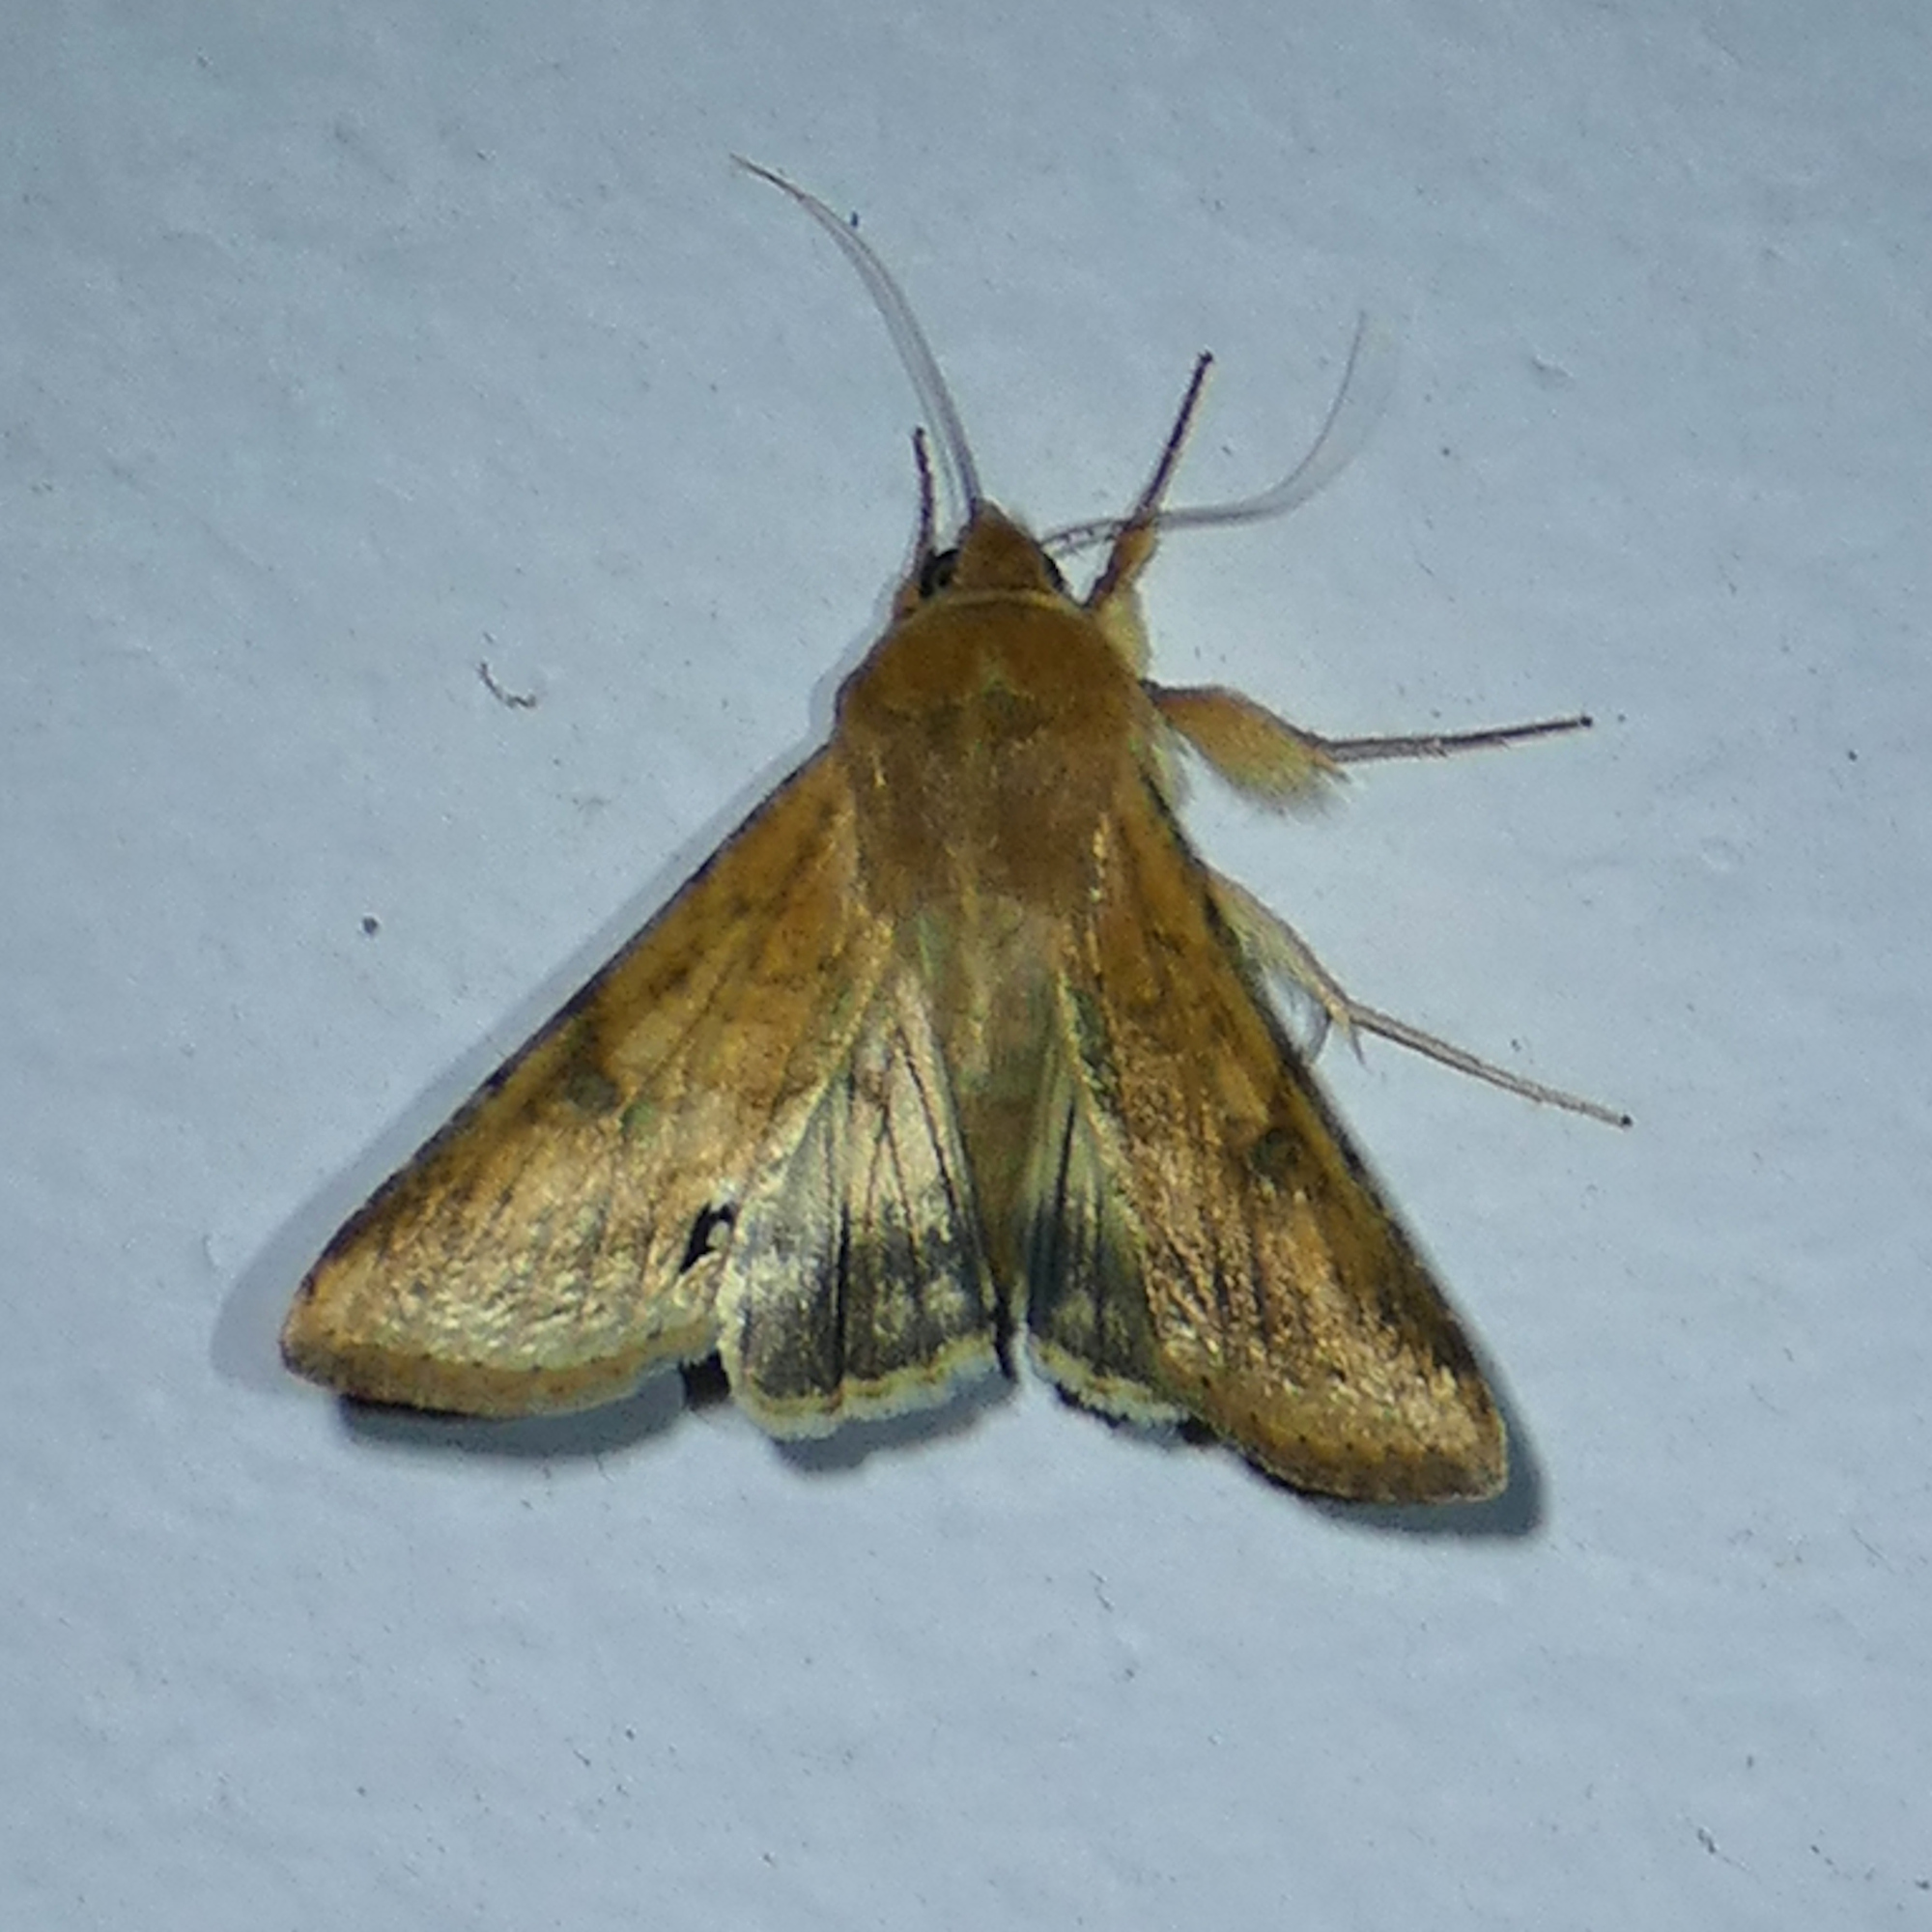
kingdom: Animalia
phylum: Arthropoda
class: Insecta
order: Lepidoptera
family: Noctuidae
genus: Helicoverpa
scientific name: Helicoverpa zea
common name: Bollworm
